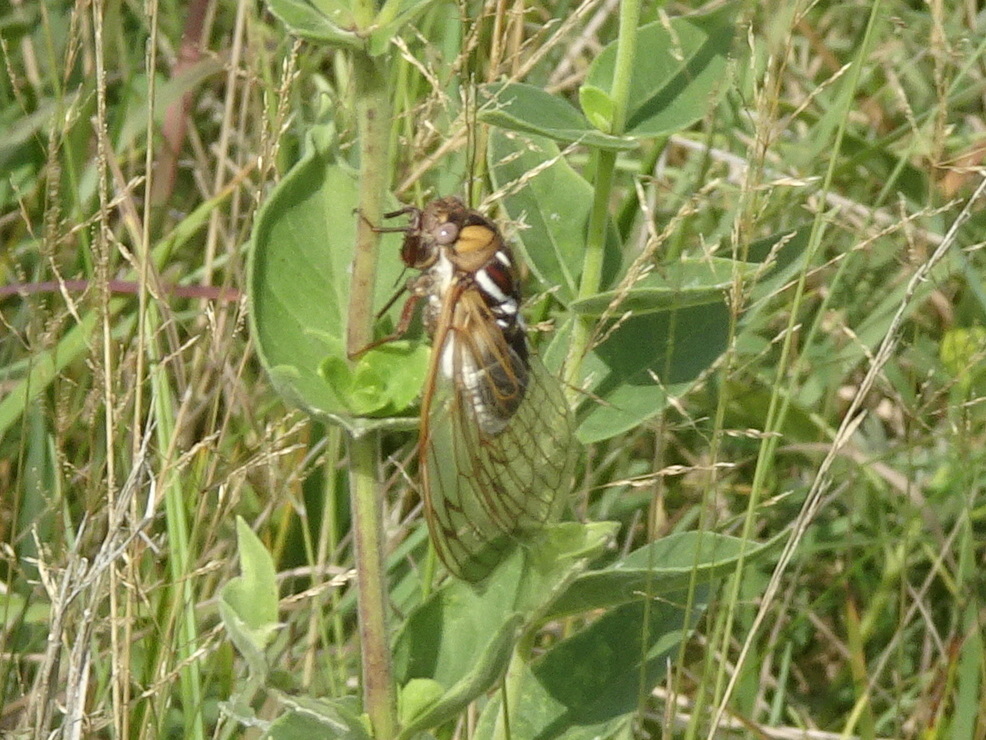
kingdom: Animalia
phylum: Arthropoda
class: Insecta
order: Hemiptera
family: Cicadidae
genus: Megatibicen
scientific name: Megatibicen dorsatus
